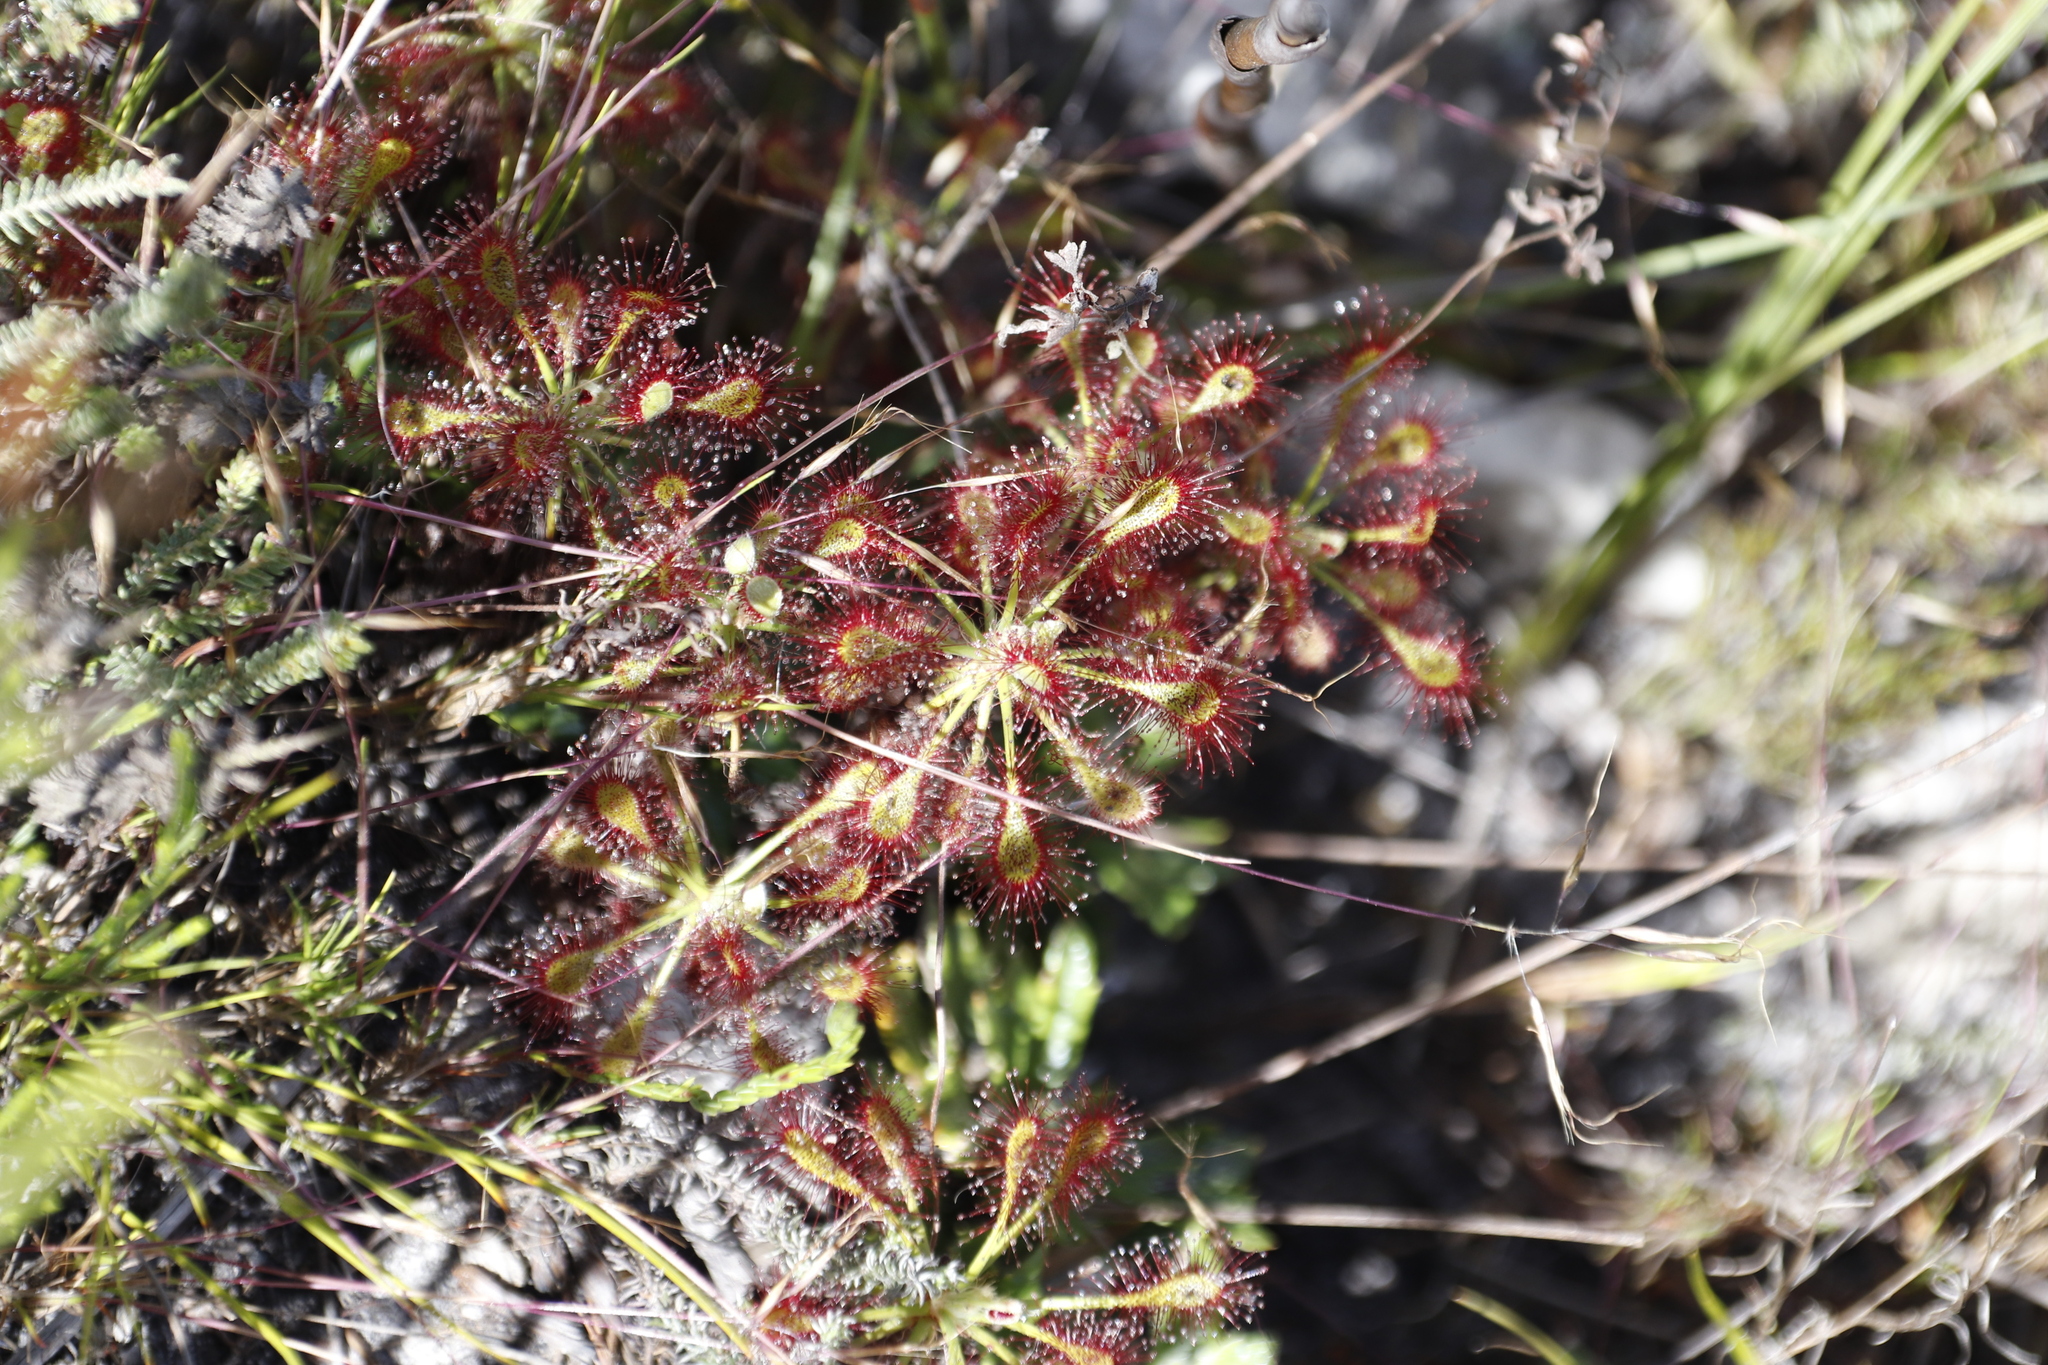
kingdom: Plantae
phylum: Tracheophyta
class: Magnoliopsida
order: Caryophyllales
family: Droseraceae
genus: Drosera
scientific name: Drosera glabripes
